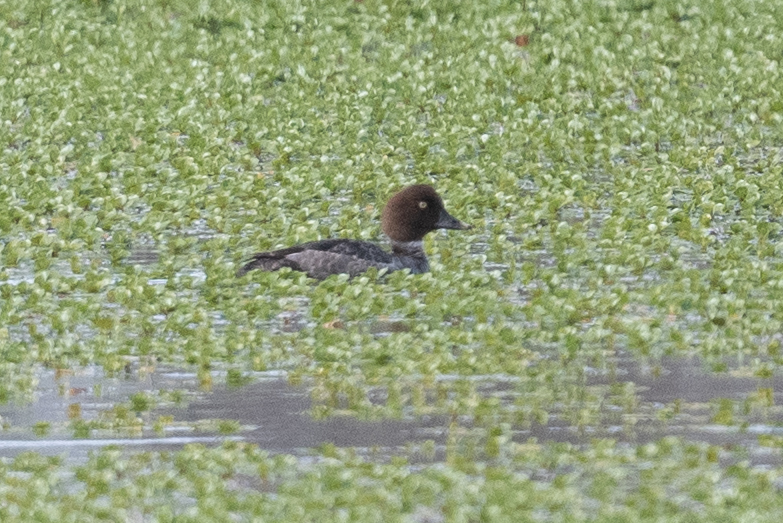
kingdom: Animalia
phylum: Chordata
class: Aves
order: Anseriformes
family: Anatidae
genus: Bucephala
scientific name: Bucephala clangula
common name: Common goldeneye
